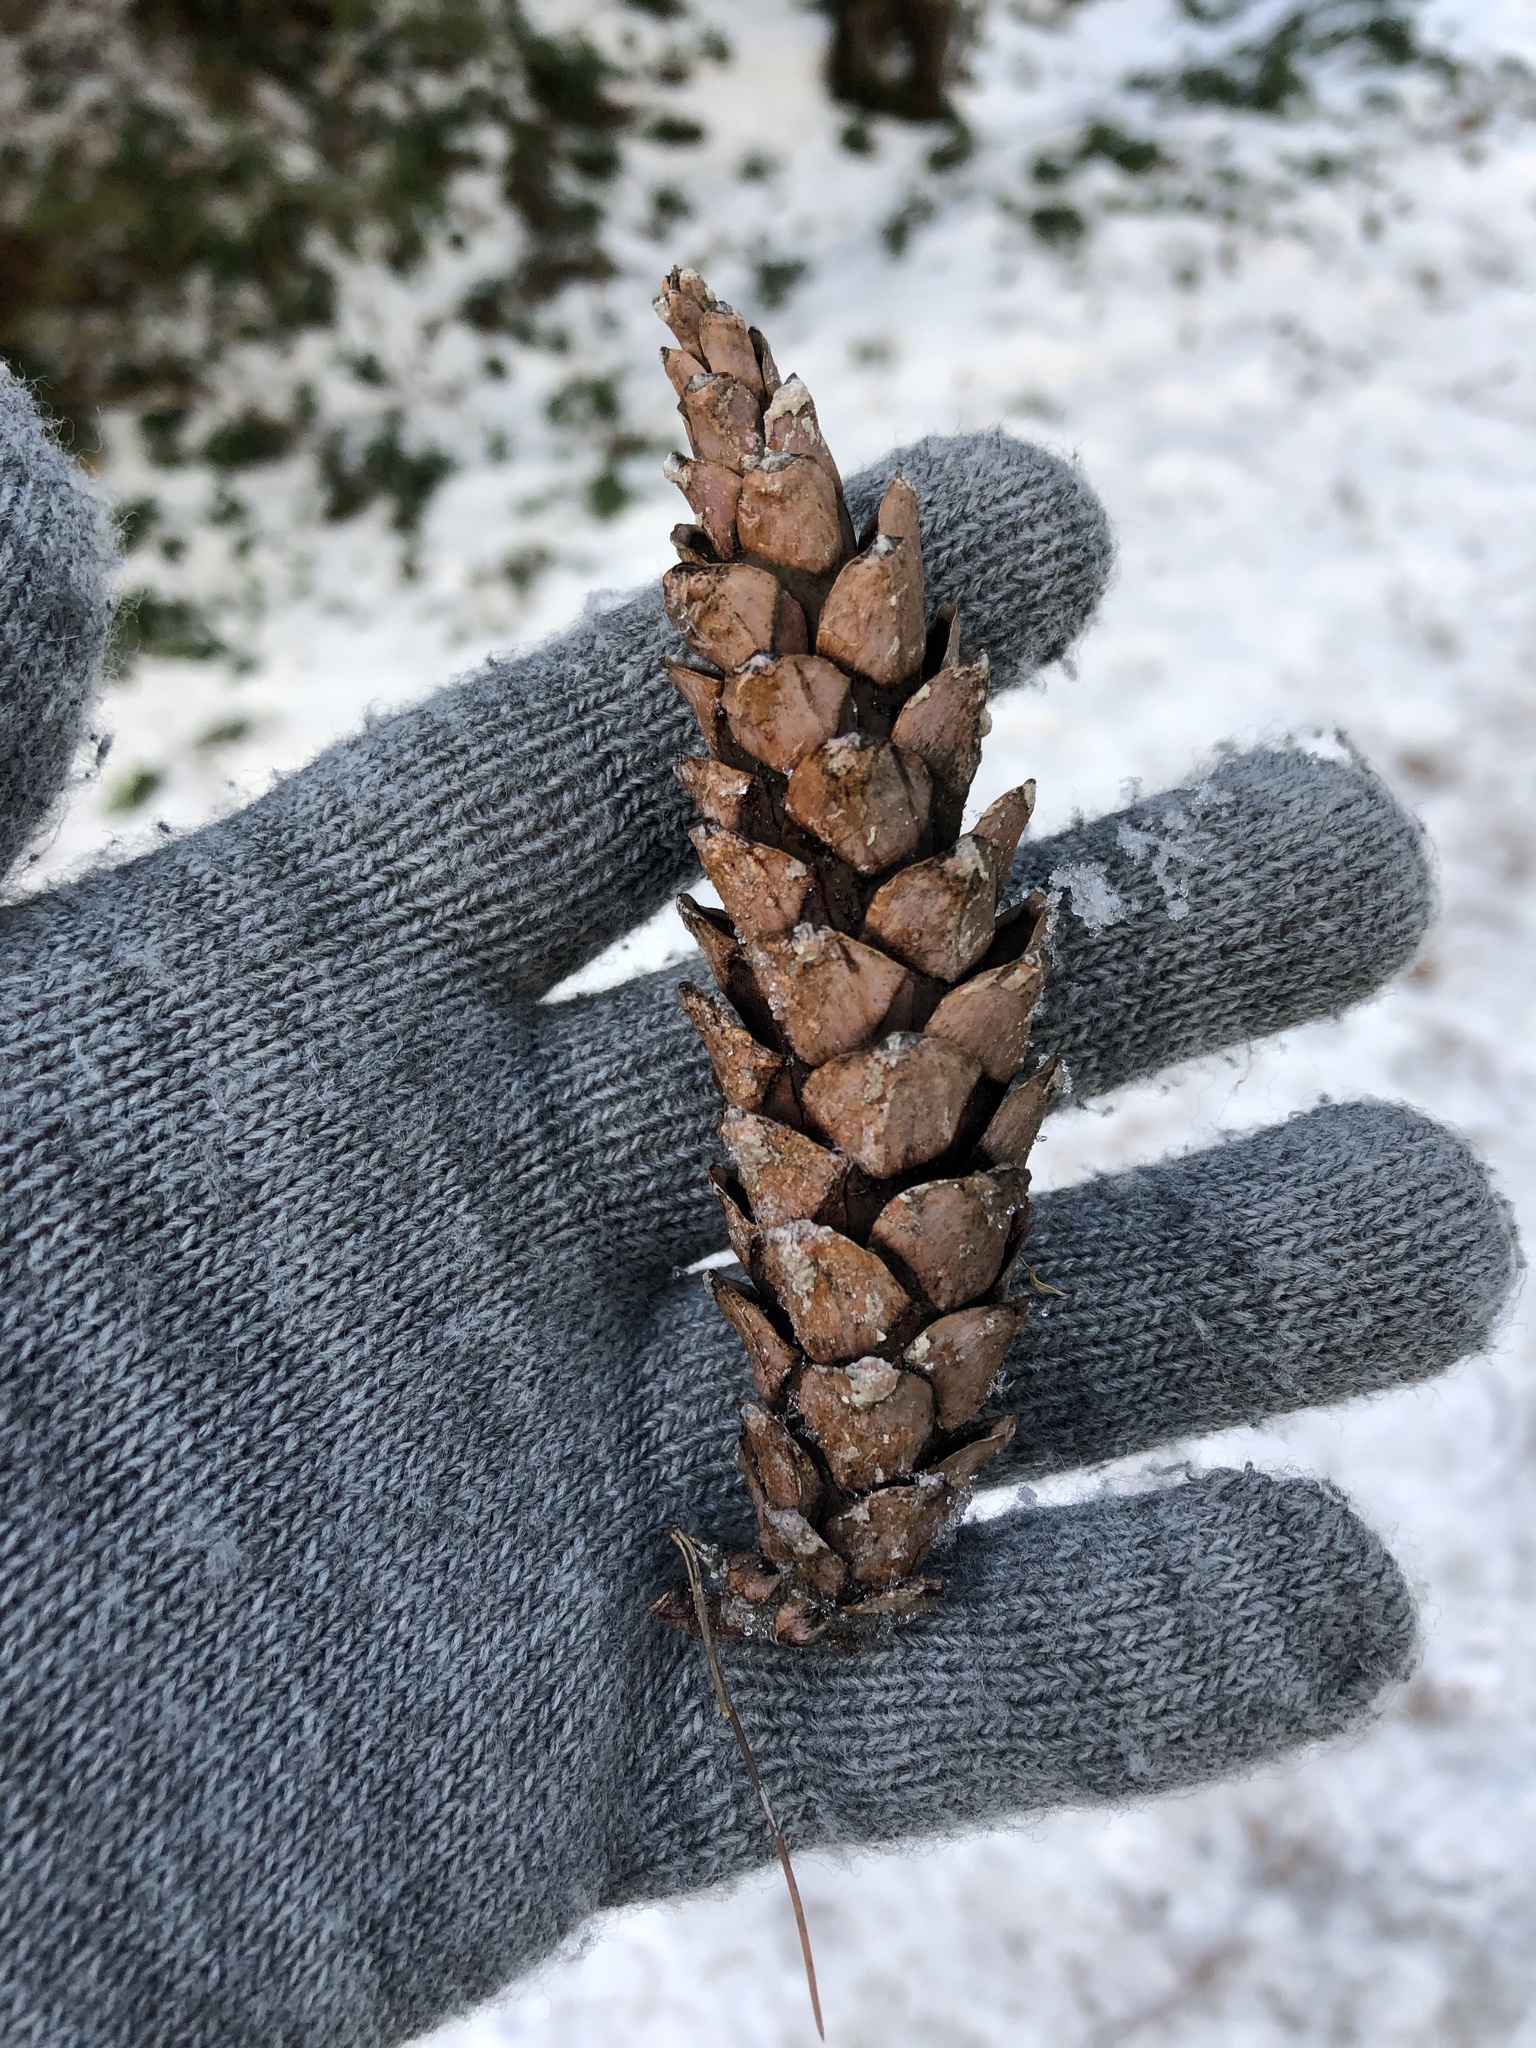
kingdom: Plantae
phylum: Tracheophyta
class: Pinopsida
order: Pinales
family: Pinaceae
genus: Pinus
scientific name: Pinus strobus
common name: Weymouth pine
